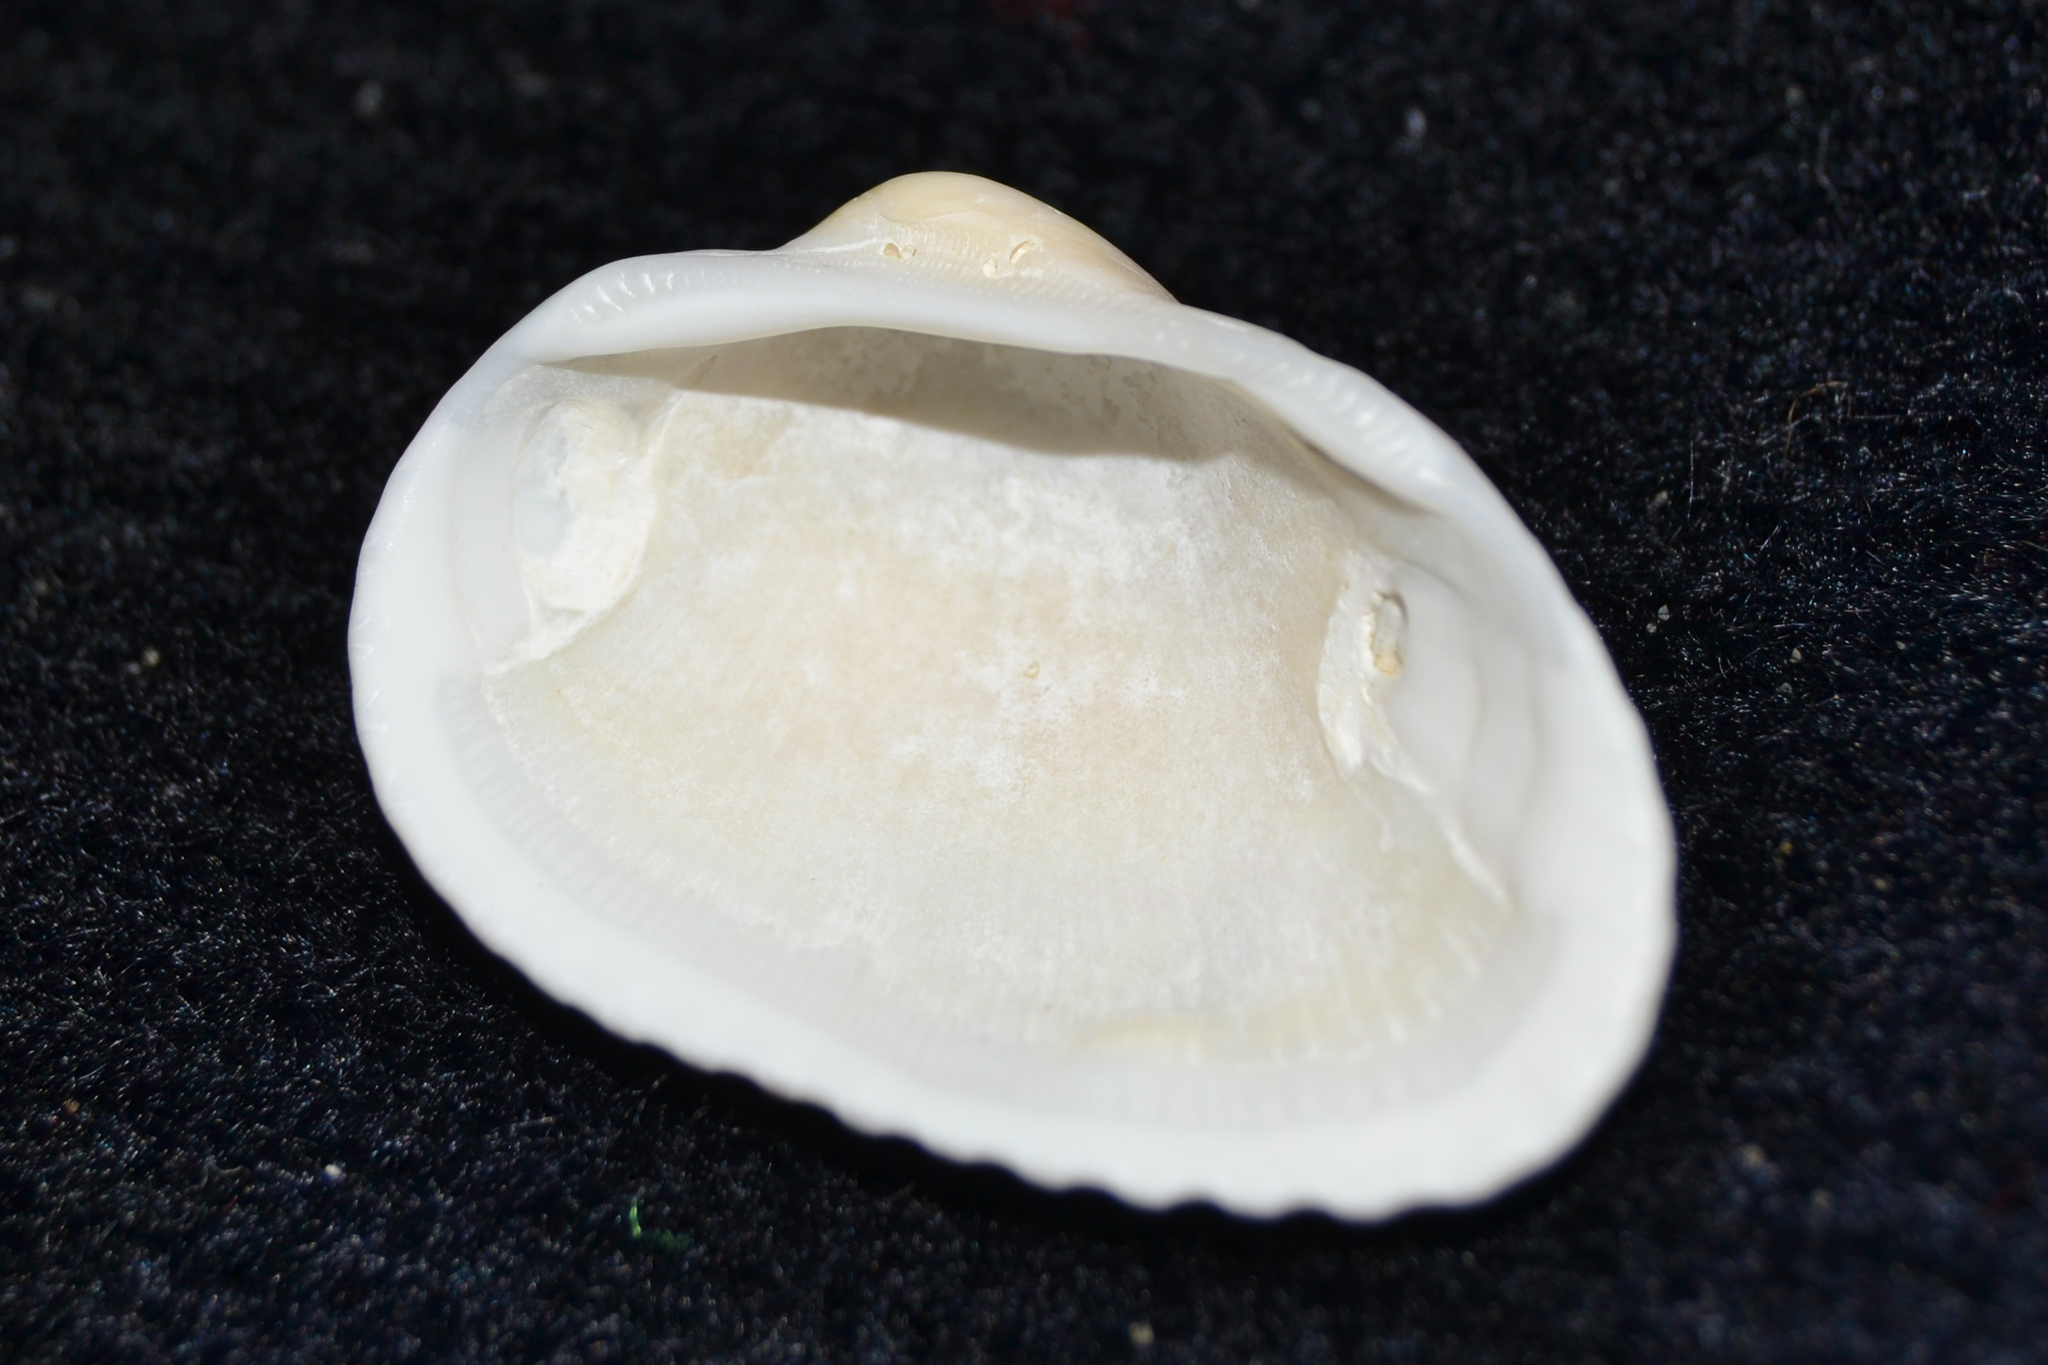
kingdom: Animalia
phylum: Mollusca
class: Bivalvia
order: Arcida
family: Arcidae
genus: Anadara
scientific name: Anadara transversa
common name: Transverse ark
